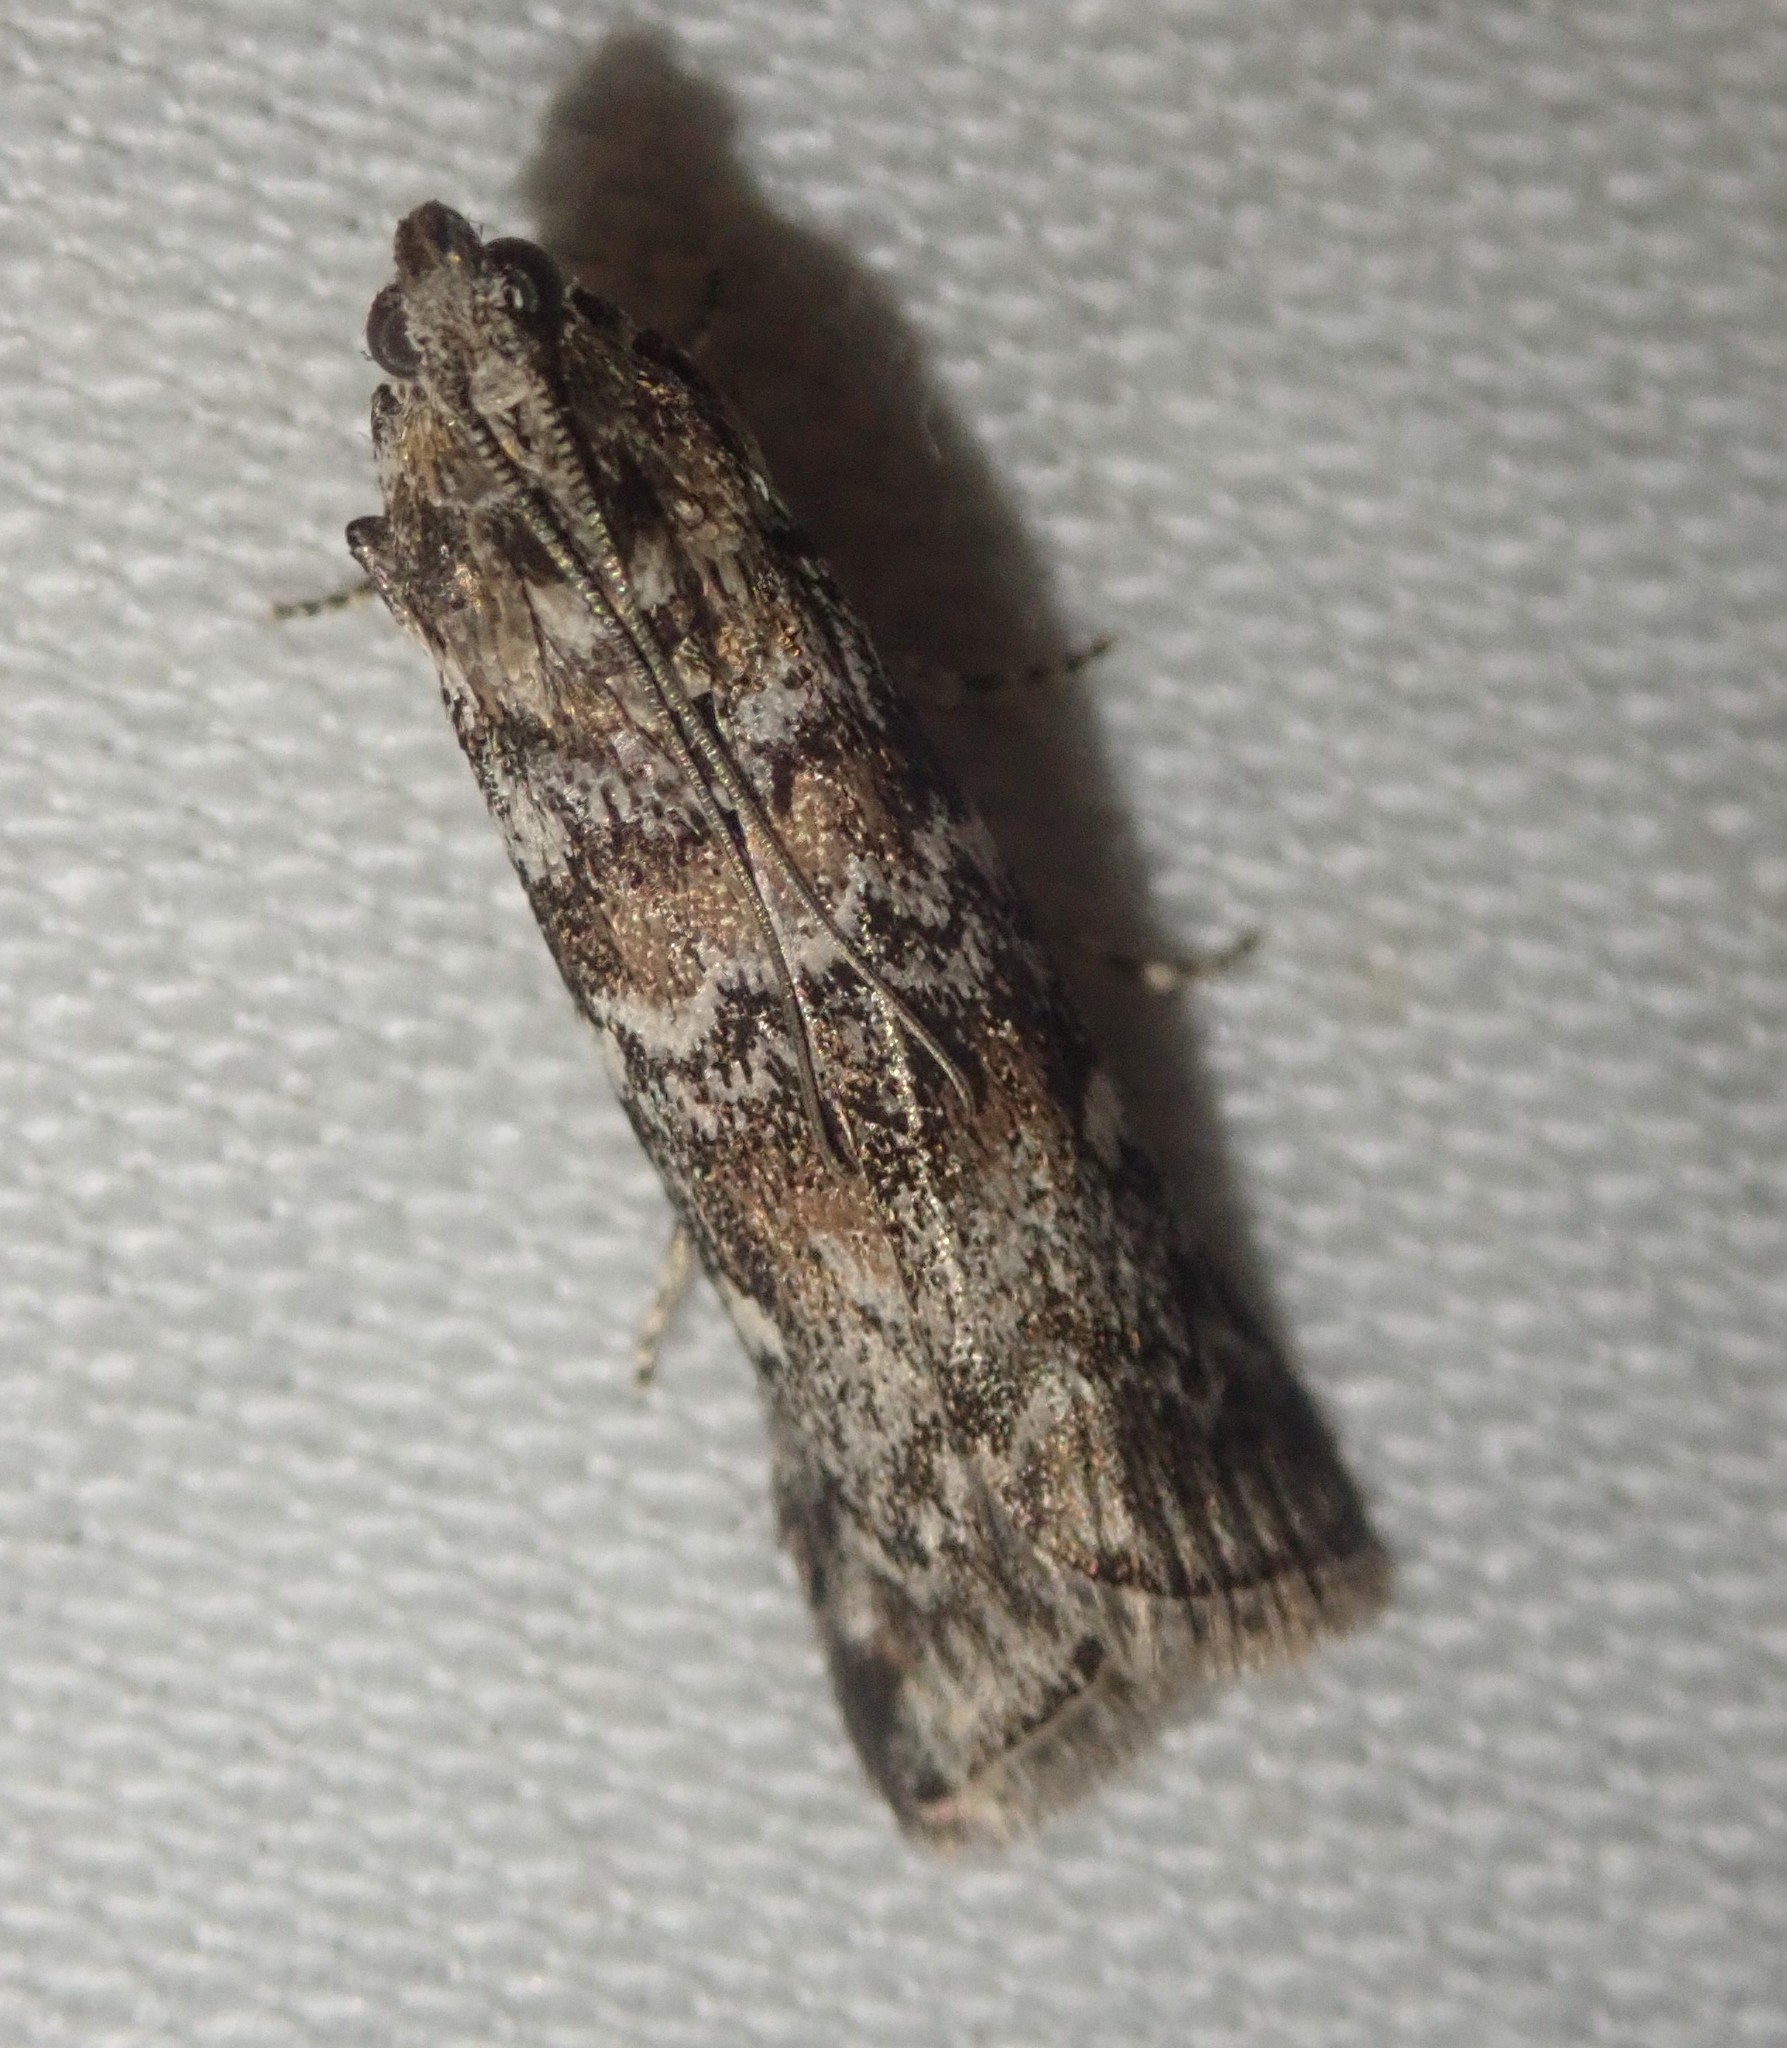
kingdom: Animalia
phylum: Arthropoda
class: Insecta
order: Lepidoptera
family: Pyralidae
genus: Dioryctria
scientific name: Dioryctria abietella
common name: Dark pine knot-horn
